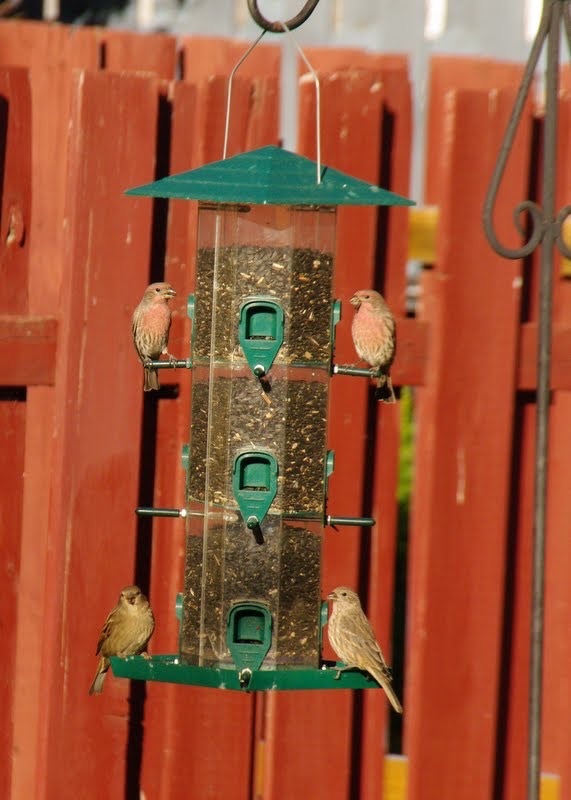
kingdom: Animalia
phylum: Chordata
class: Aves
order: Passeriformes
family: Fringillidae
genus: Haemorhous
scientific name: Haemorhous mexicanus
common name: House finch
